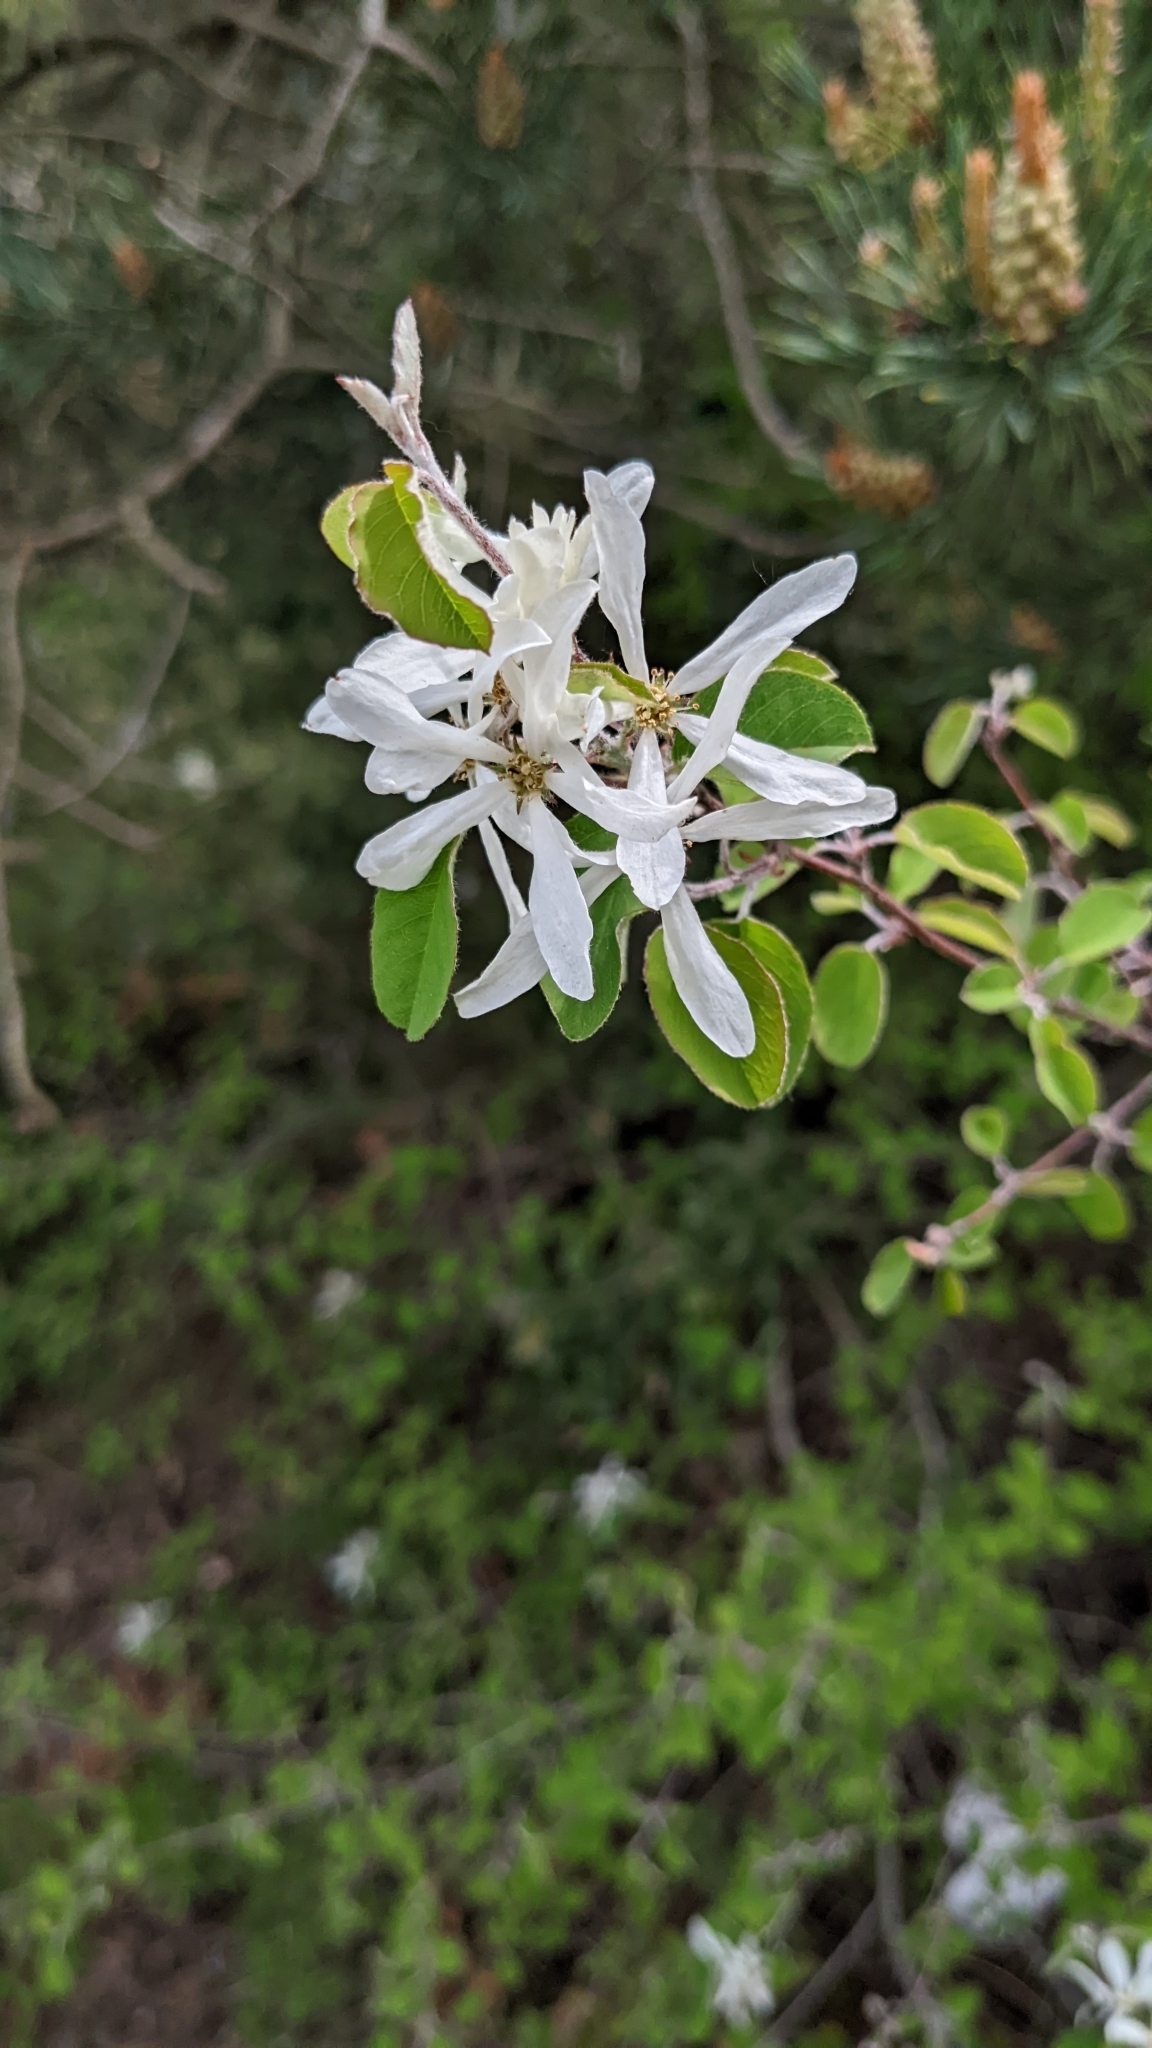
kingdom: Plantae
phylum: Tracheophyta
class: Magnoliopsida
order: Rosales
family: Rosaceae
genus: Amelanchier
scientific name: Amelanchier ovalis
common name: Serviceberry
